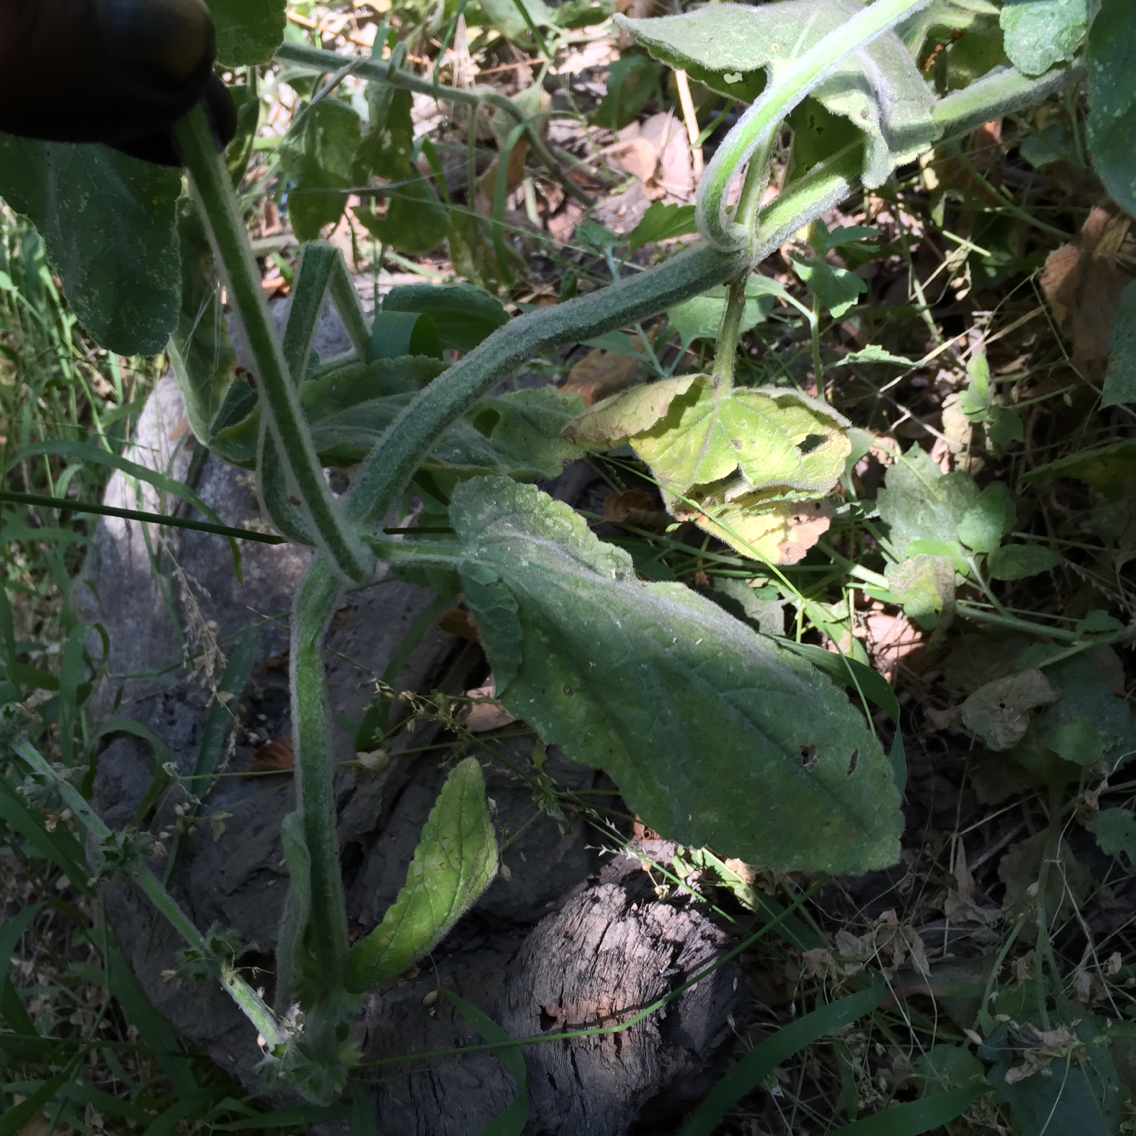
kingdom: Plantae
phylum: Tracheophyta
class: Magnoliopsida
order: Lamiales
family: Lamiaceae
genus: Stachys
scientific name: Stachys albens
